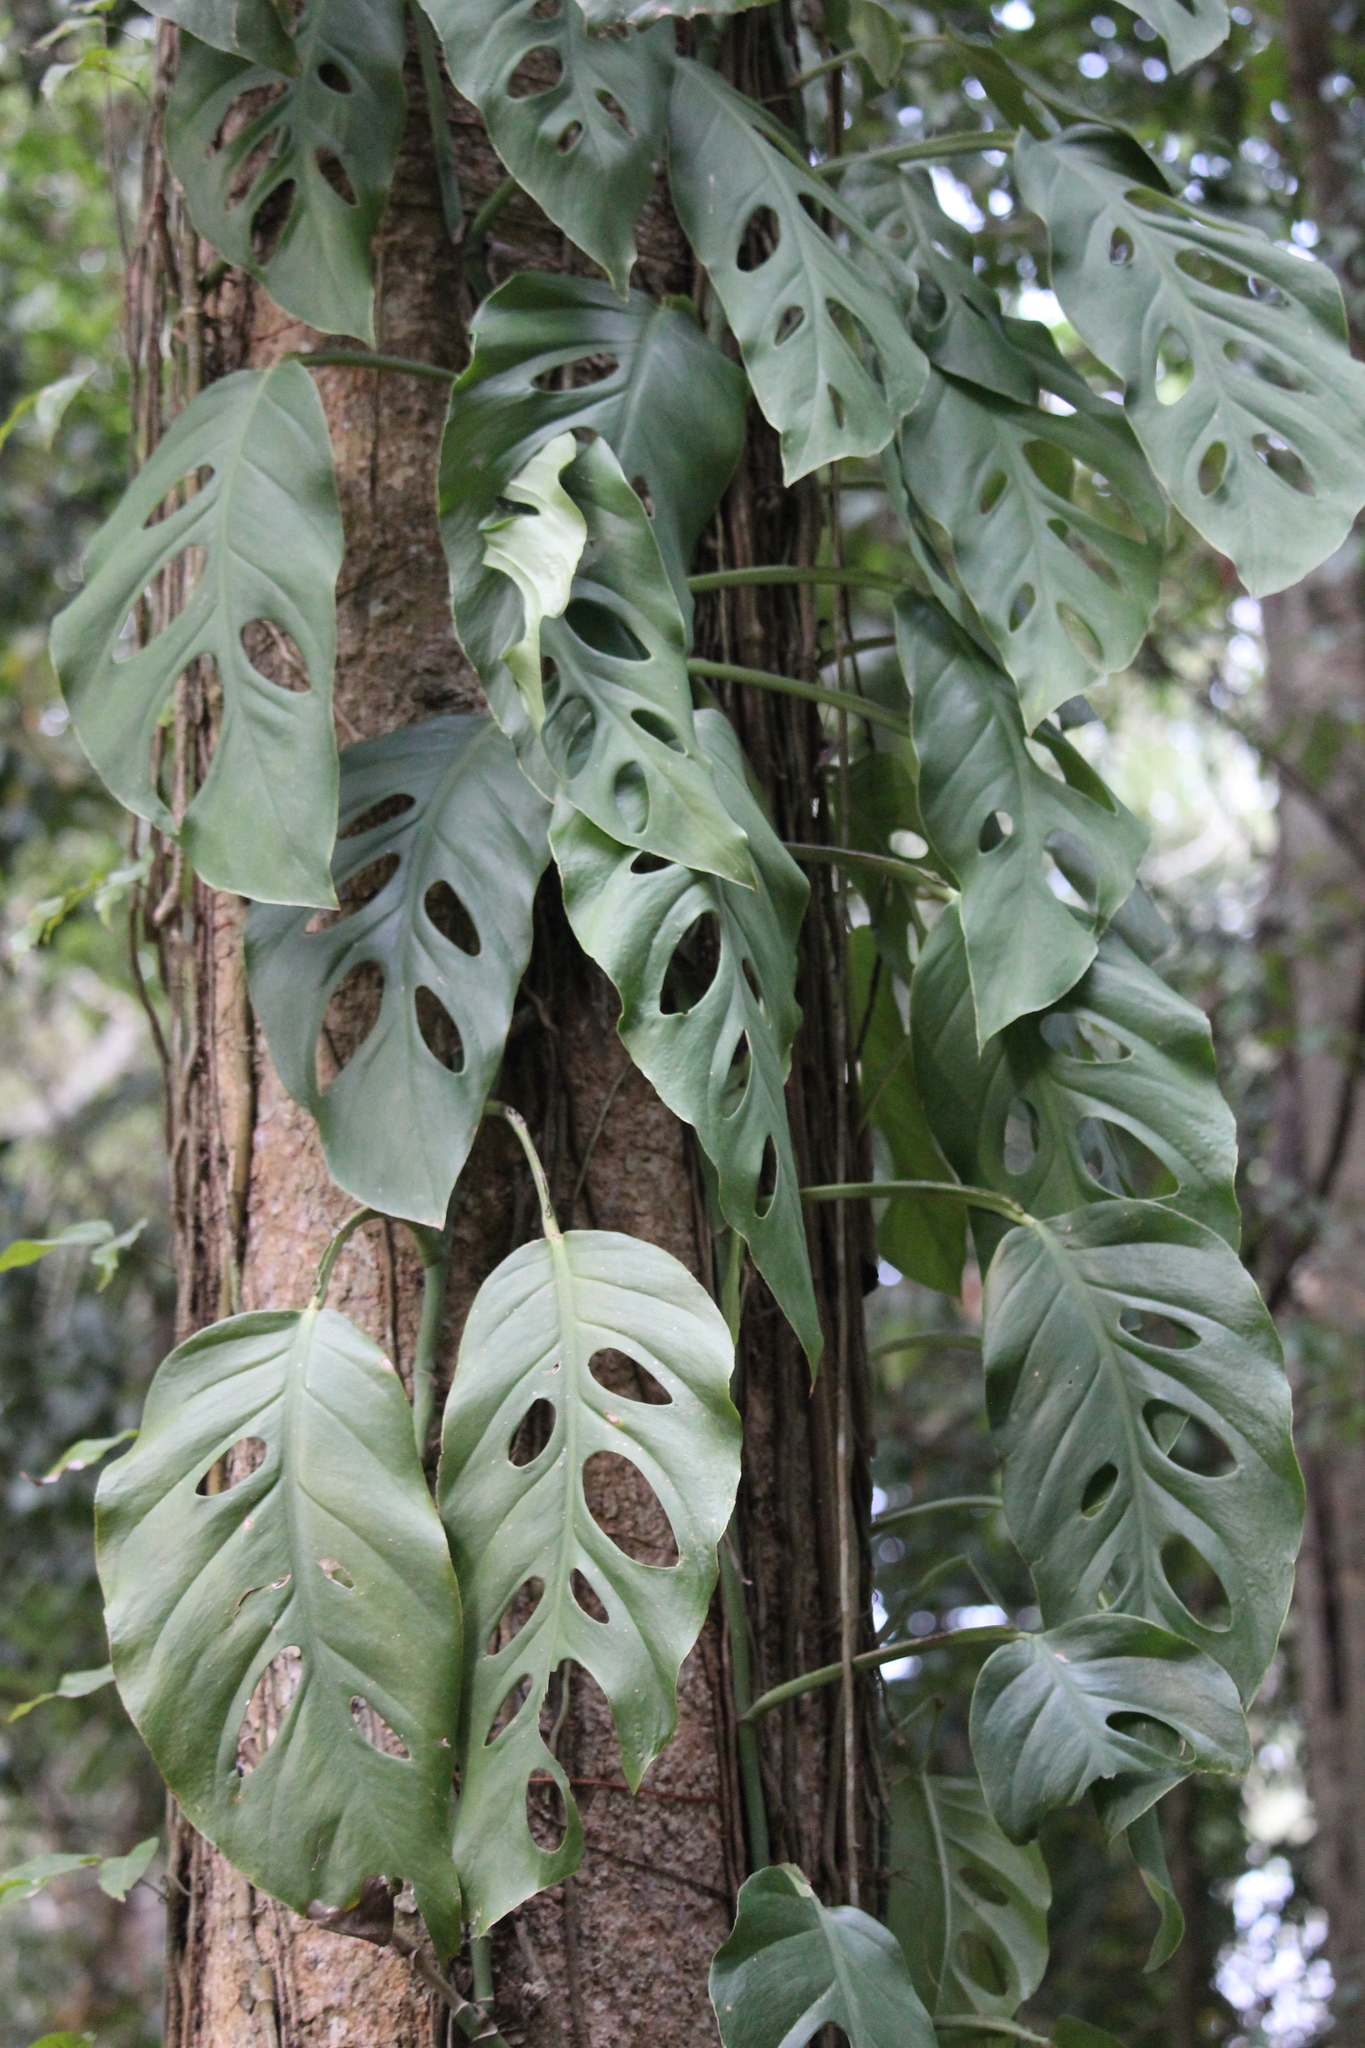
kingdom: Plantae
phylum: Tracheophyta
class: Liliopsida
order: Alismatales
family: Araceae
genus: Monstera
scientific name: Monstera acuminata
